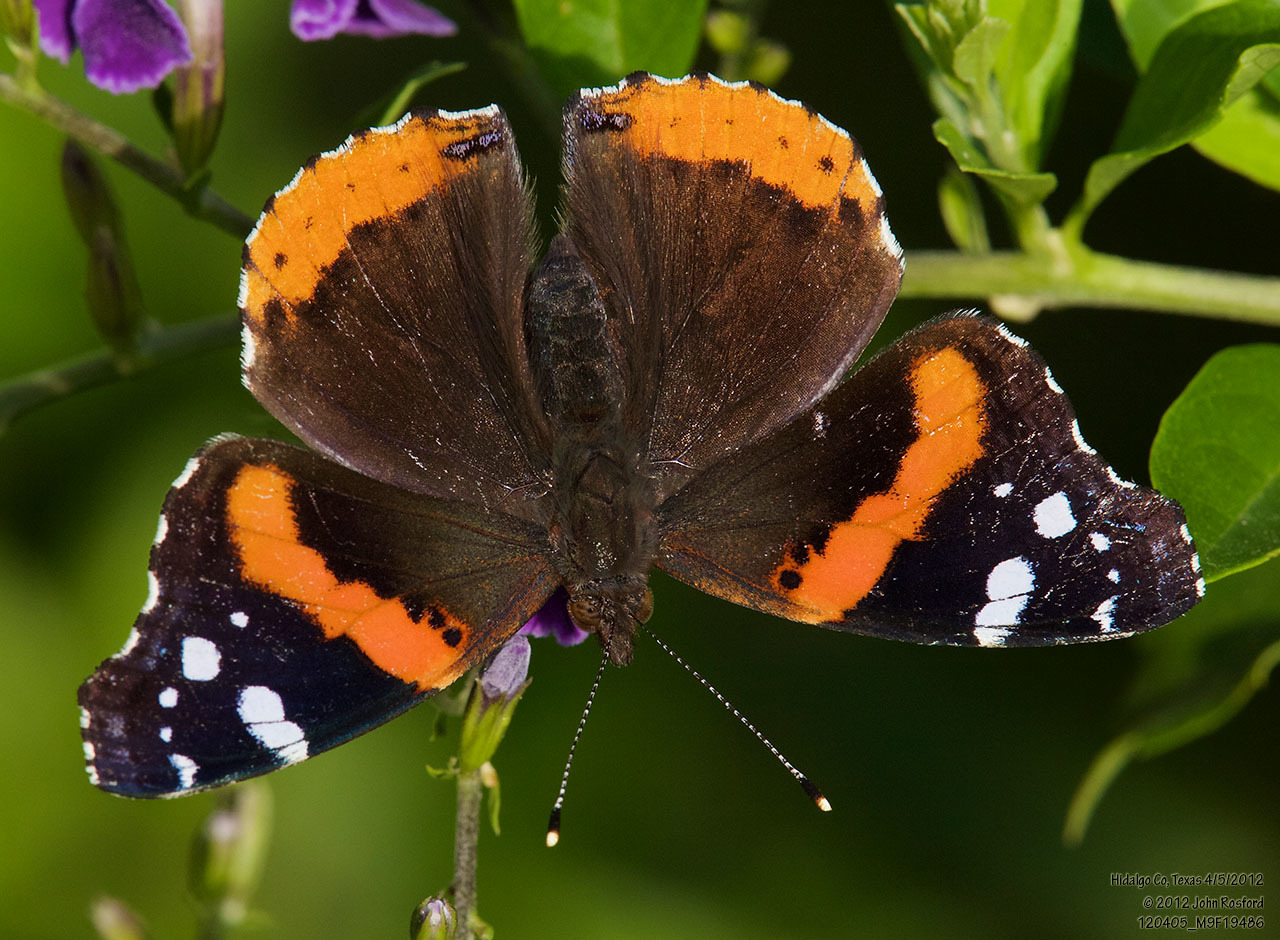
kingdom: Animalia
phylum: Arthropoda
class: Insecta
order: Lepidoptera
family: Nymphalidae
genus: Vanessa
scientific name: Vanessa atalanta
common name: Red admiral
